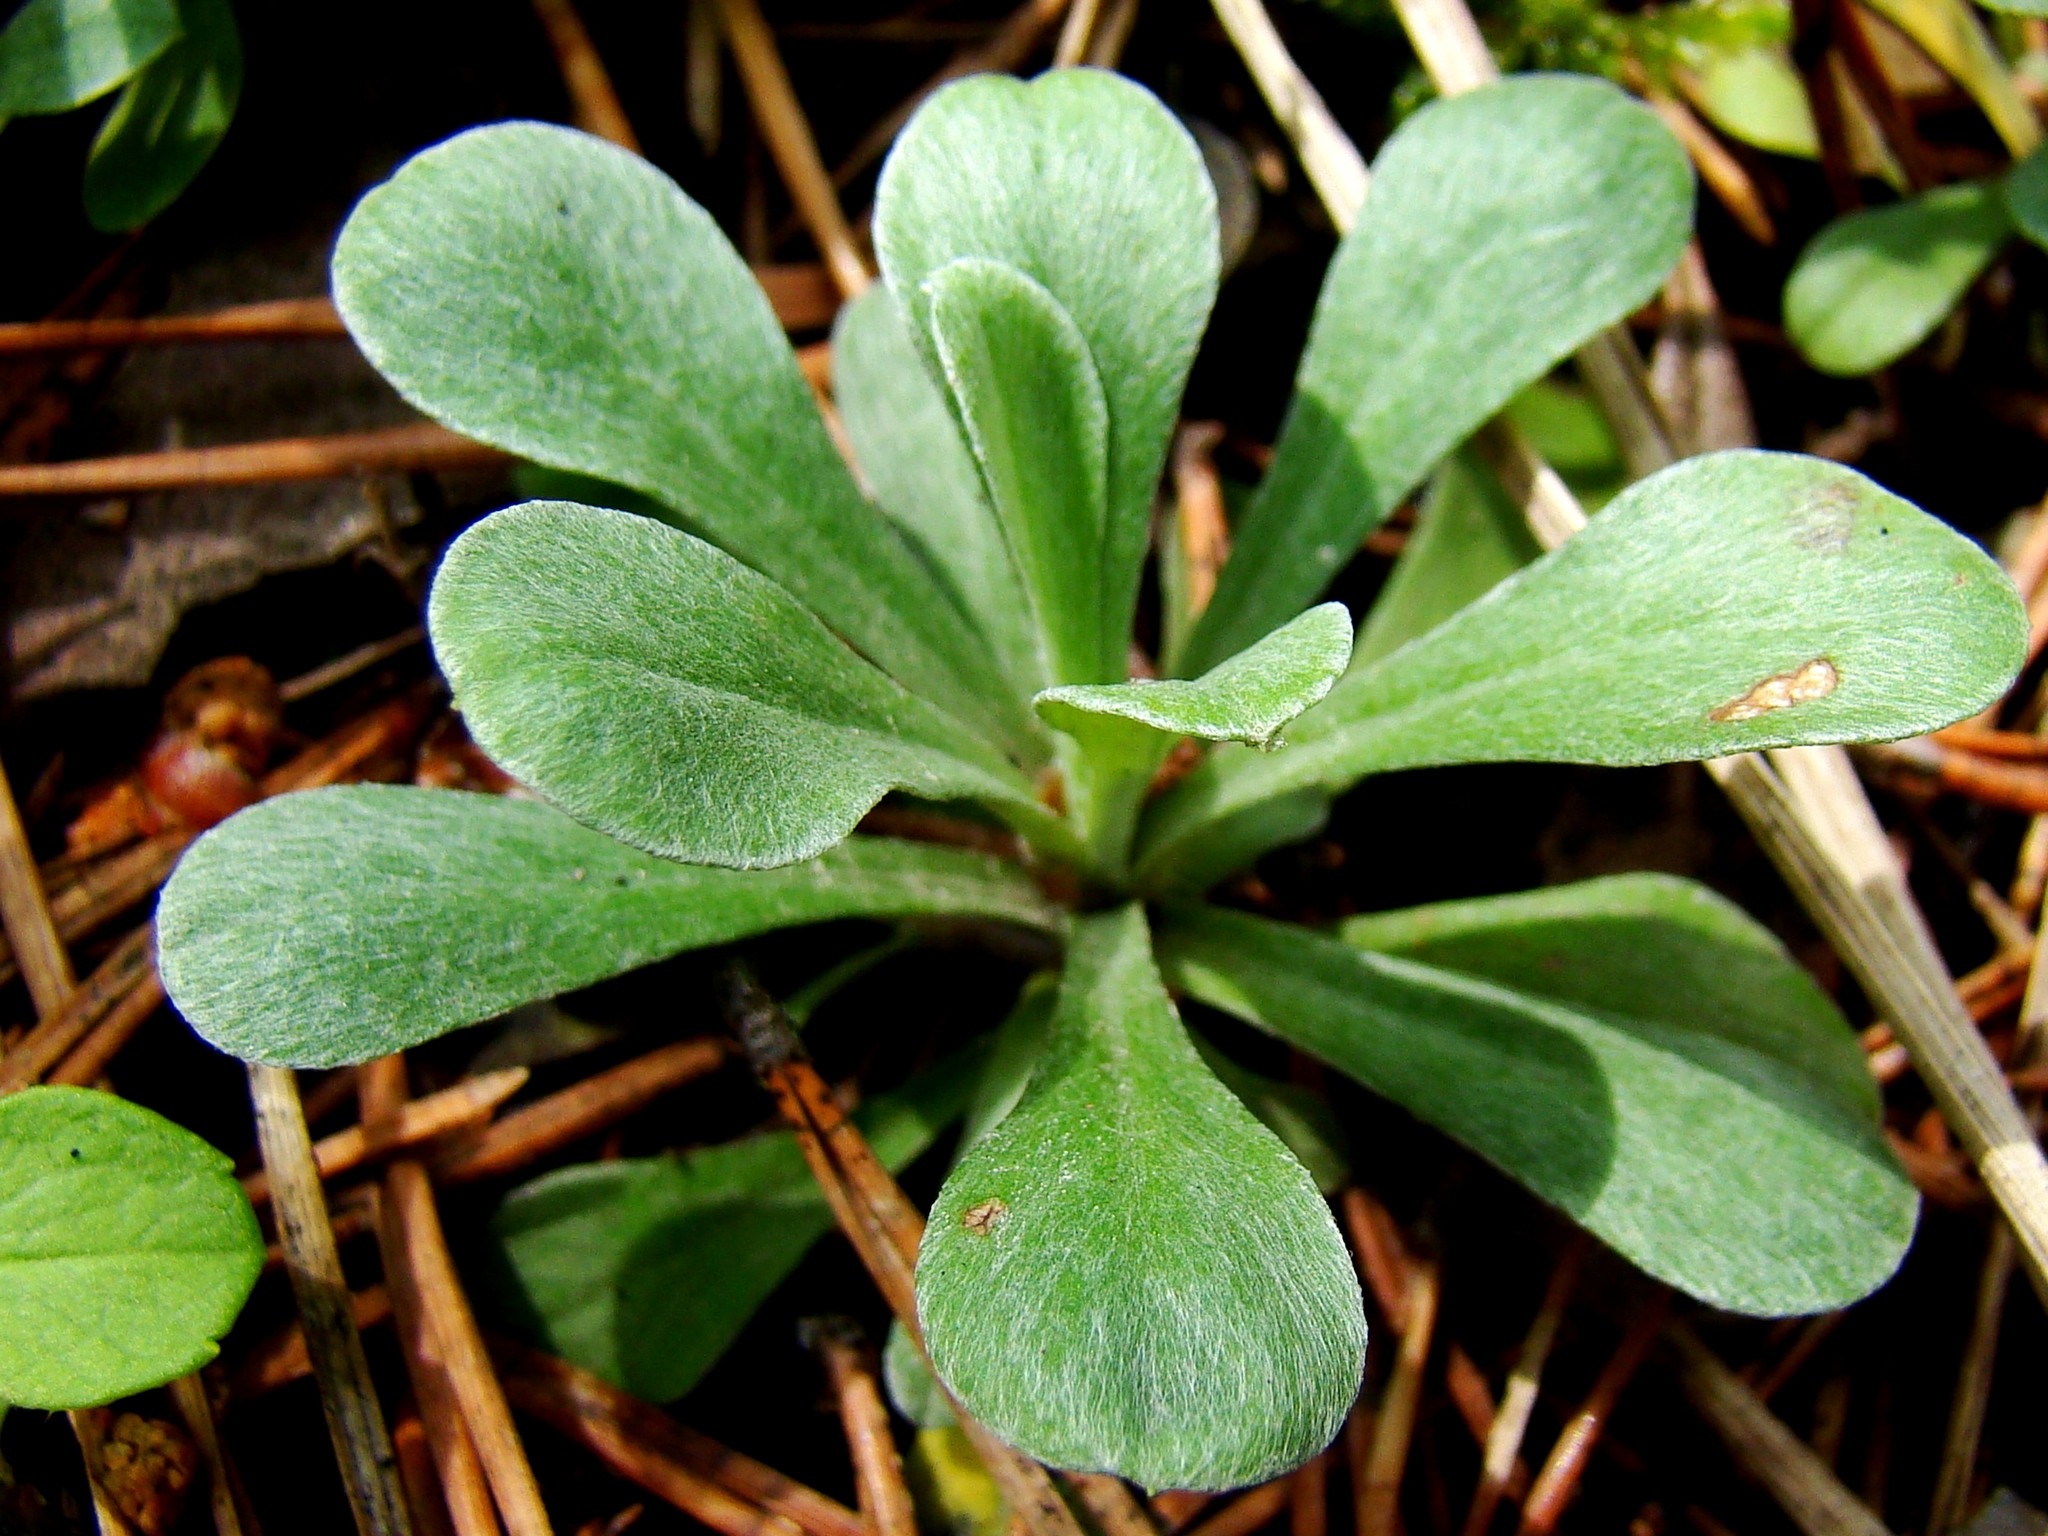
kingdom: Plantae
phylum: Tracheophyta
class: Magnoliopsida
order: Asterales
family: Asteraceae
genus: Antennaria
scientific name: Antennaria dioica
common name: Mountain everlasting
